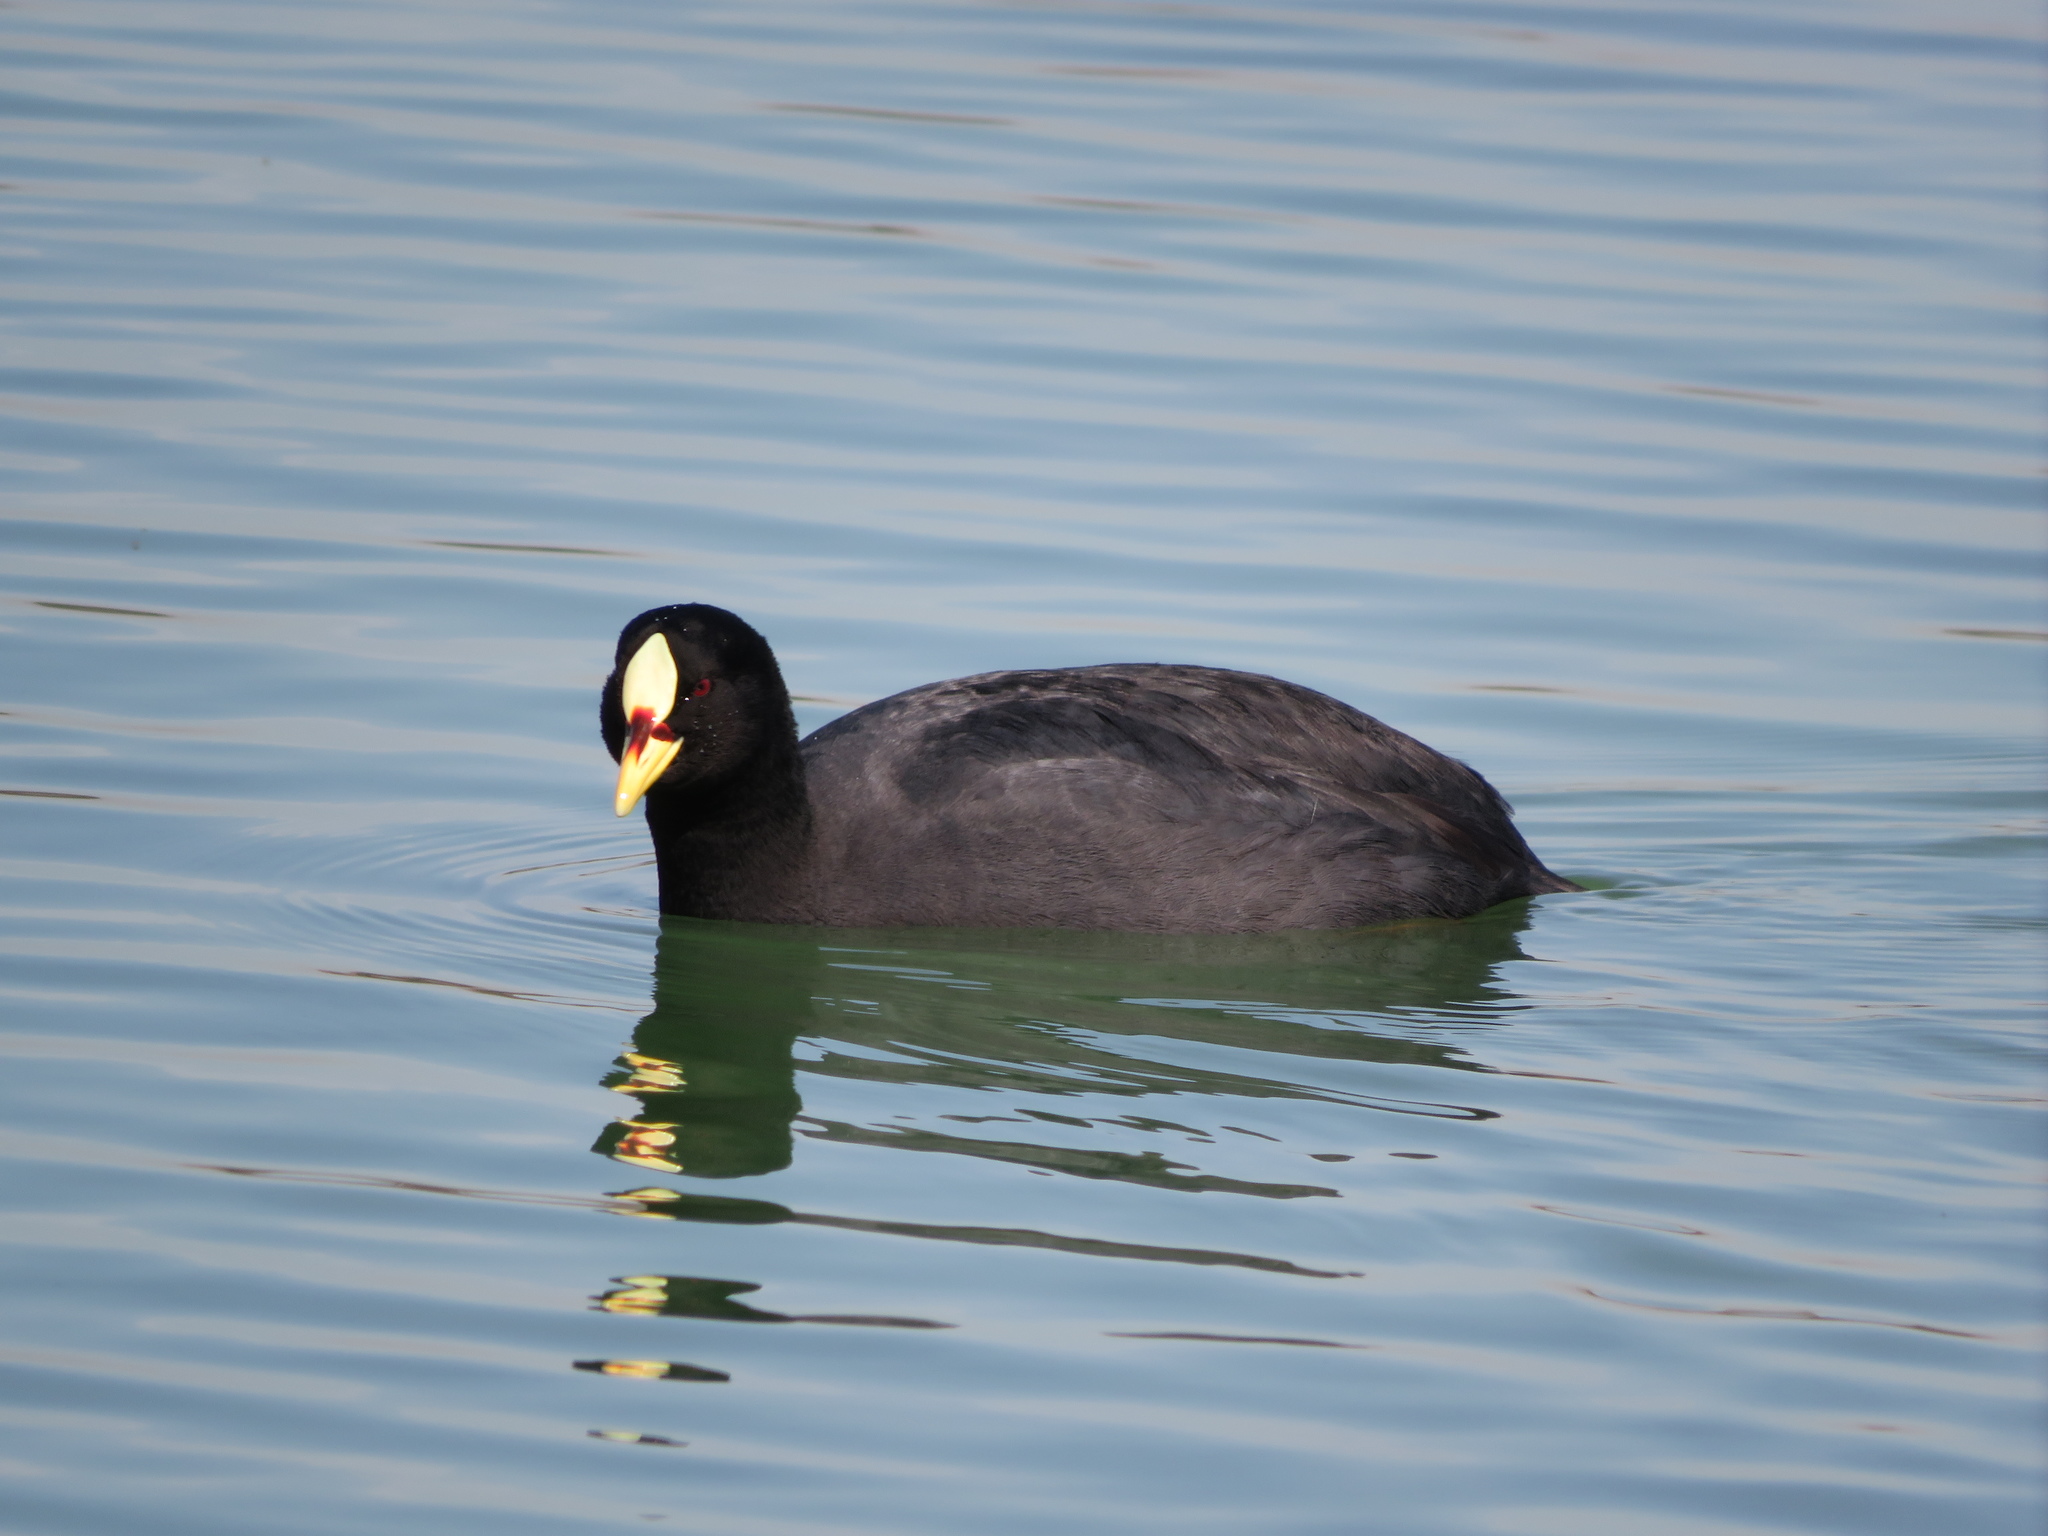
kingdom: Animalia
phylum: Chordata
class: Aves
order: Gruiformes
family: Rallidae
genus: Fulica
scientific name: Fulica armillata
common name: Red-gartered coot
